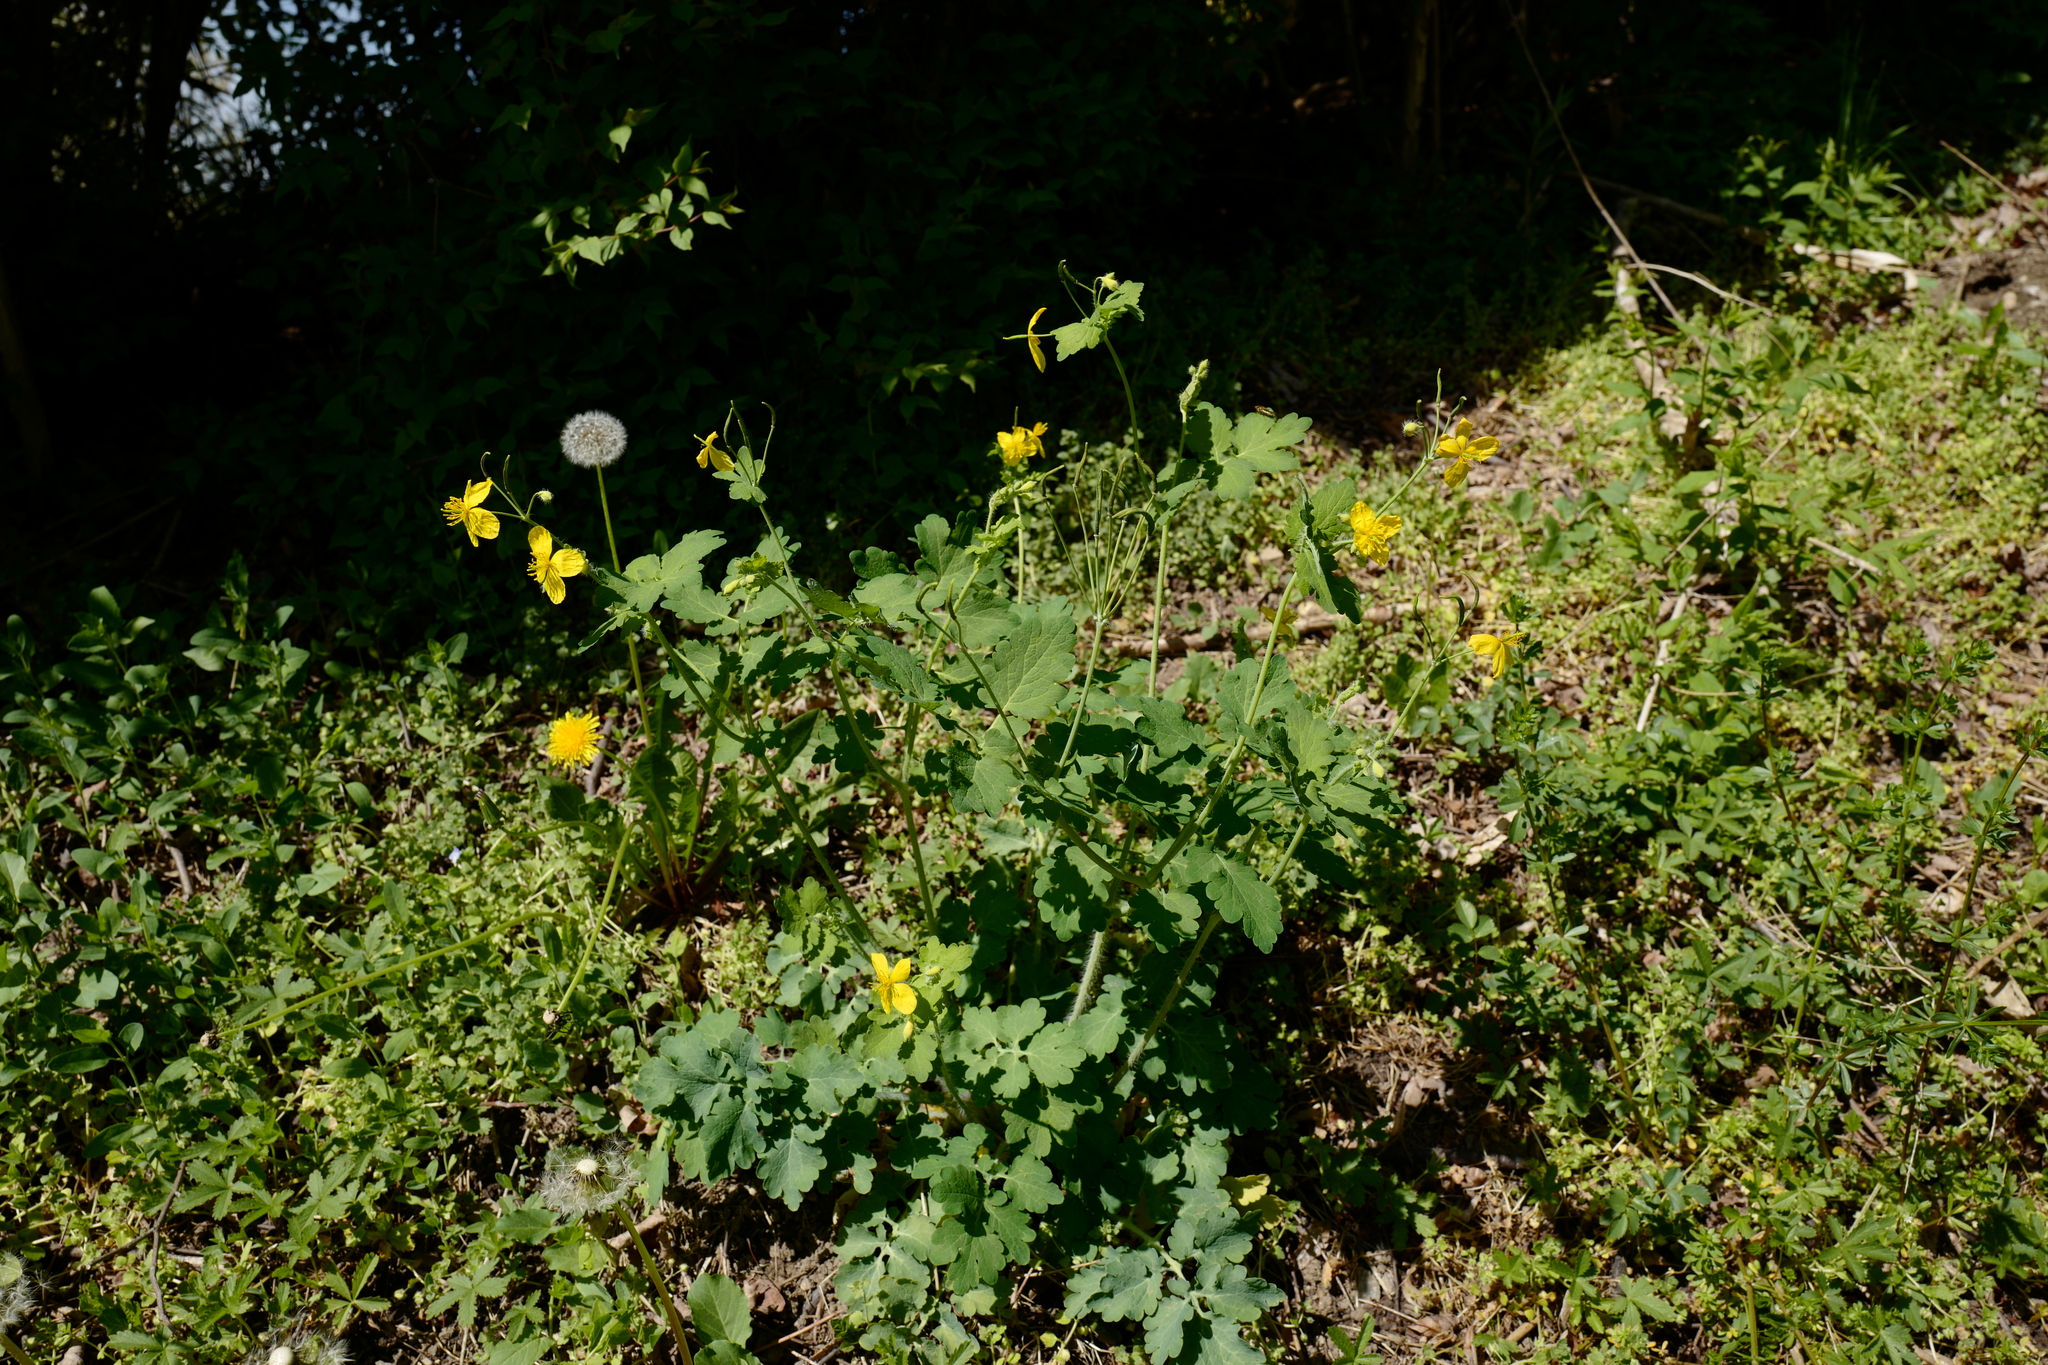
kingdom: Plantae
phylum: Tracheophyta
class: Magnoliopsida
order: Ranunculales
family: Papaveraceae
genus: Chelidonium
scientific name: Chelidonium majus
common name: Greater celandine
